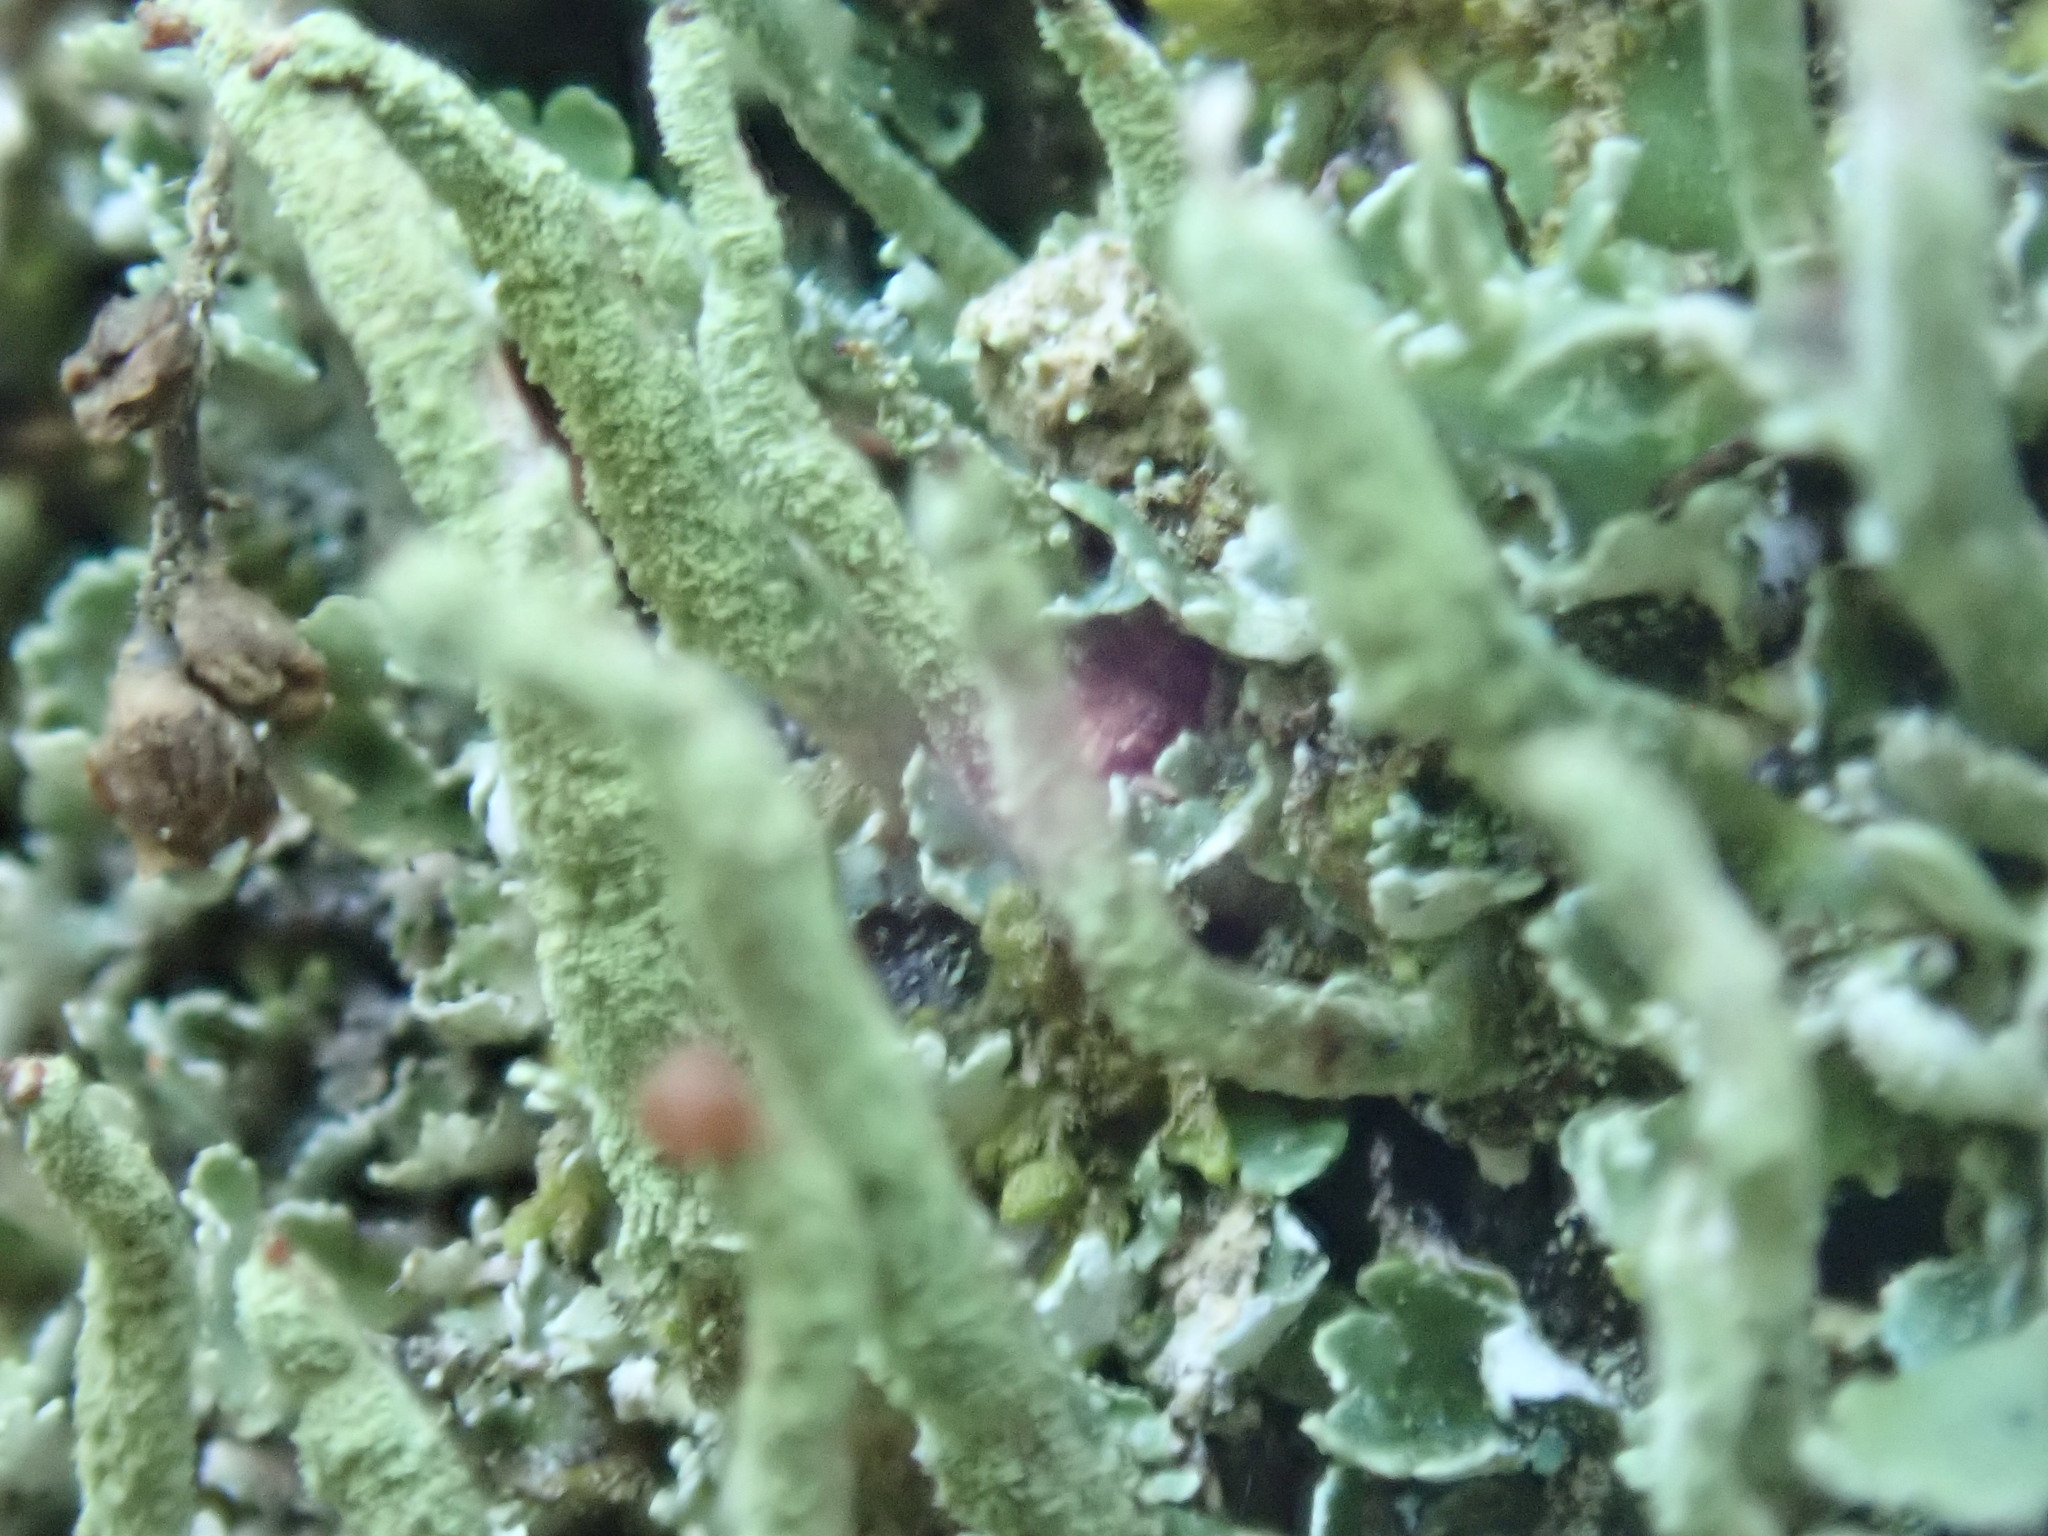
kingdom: Fungi
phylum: Ascomycota
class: Lecanoromycetes
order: Lecanorales
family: Cladoniaceae
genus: Cladonia
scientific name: Cladonia coniocraea
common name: Common powderhorn
